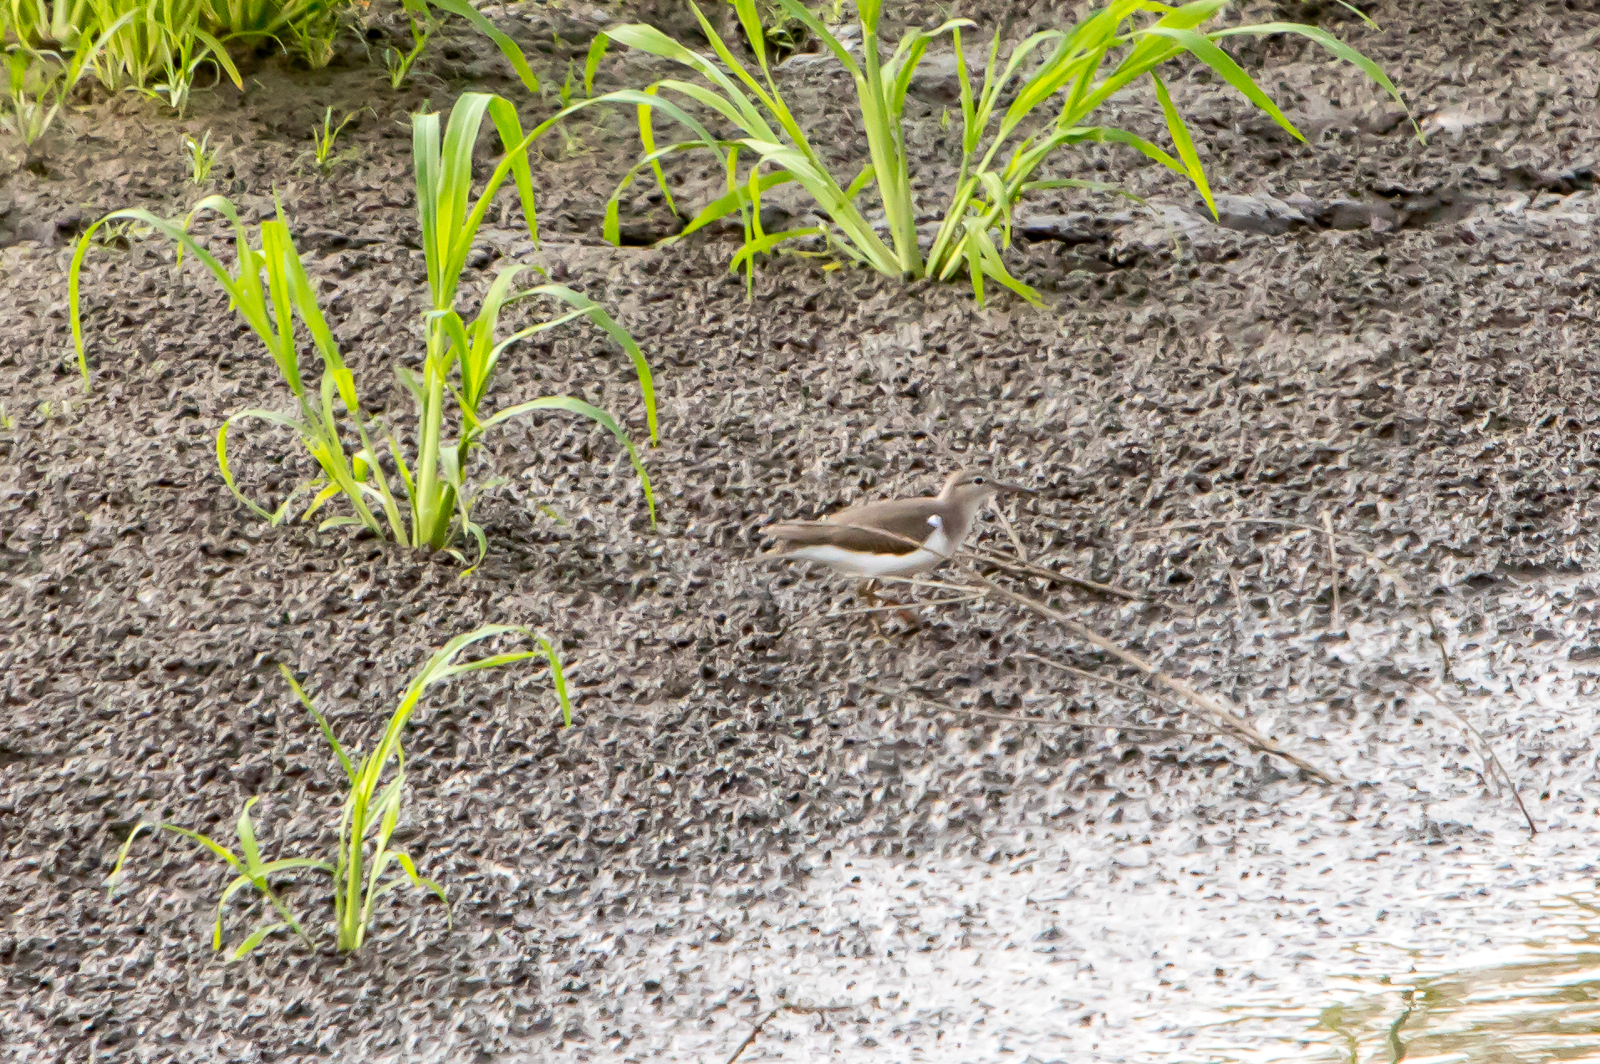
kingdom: Animalia
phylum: Chordata
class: Aves
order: Charadriiformes
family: Scolopacidae
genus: Actitis
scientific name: Actitis macularius
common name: Spotted sandpiper
